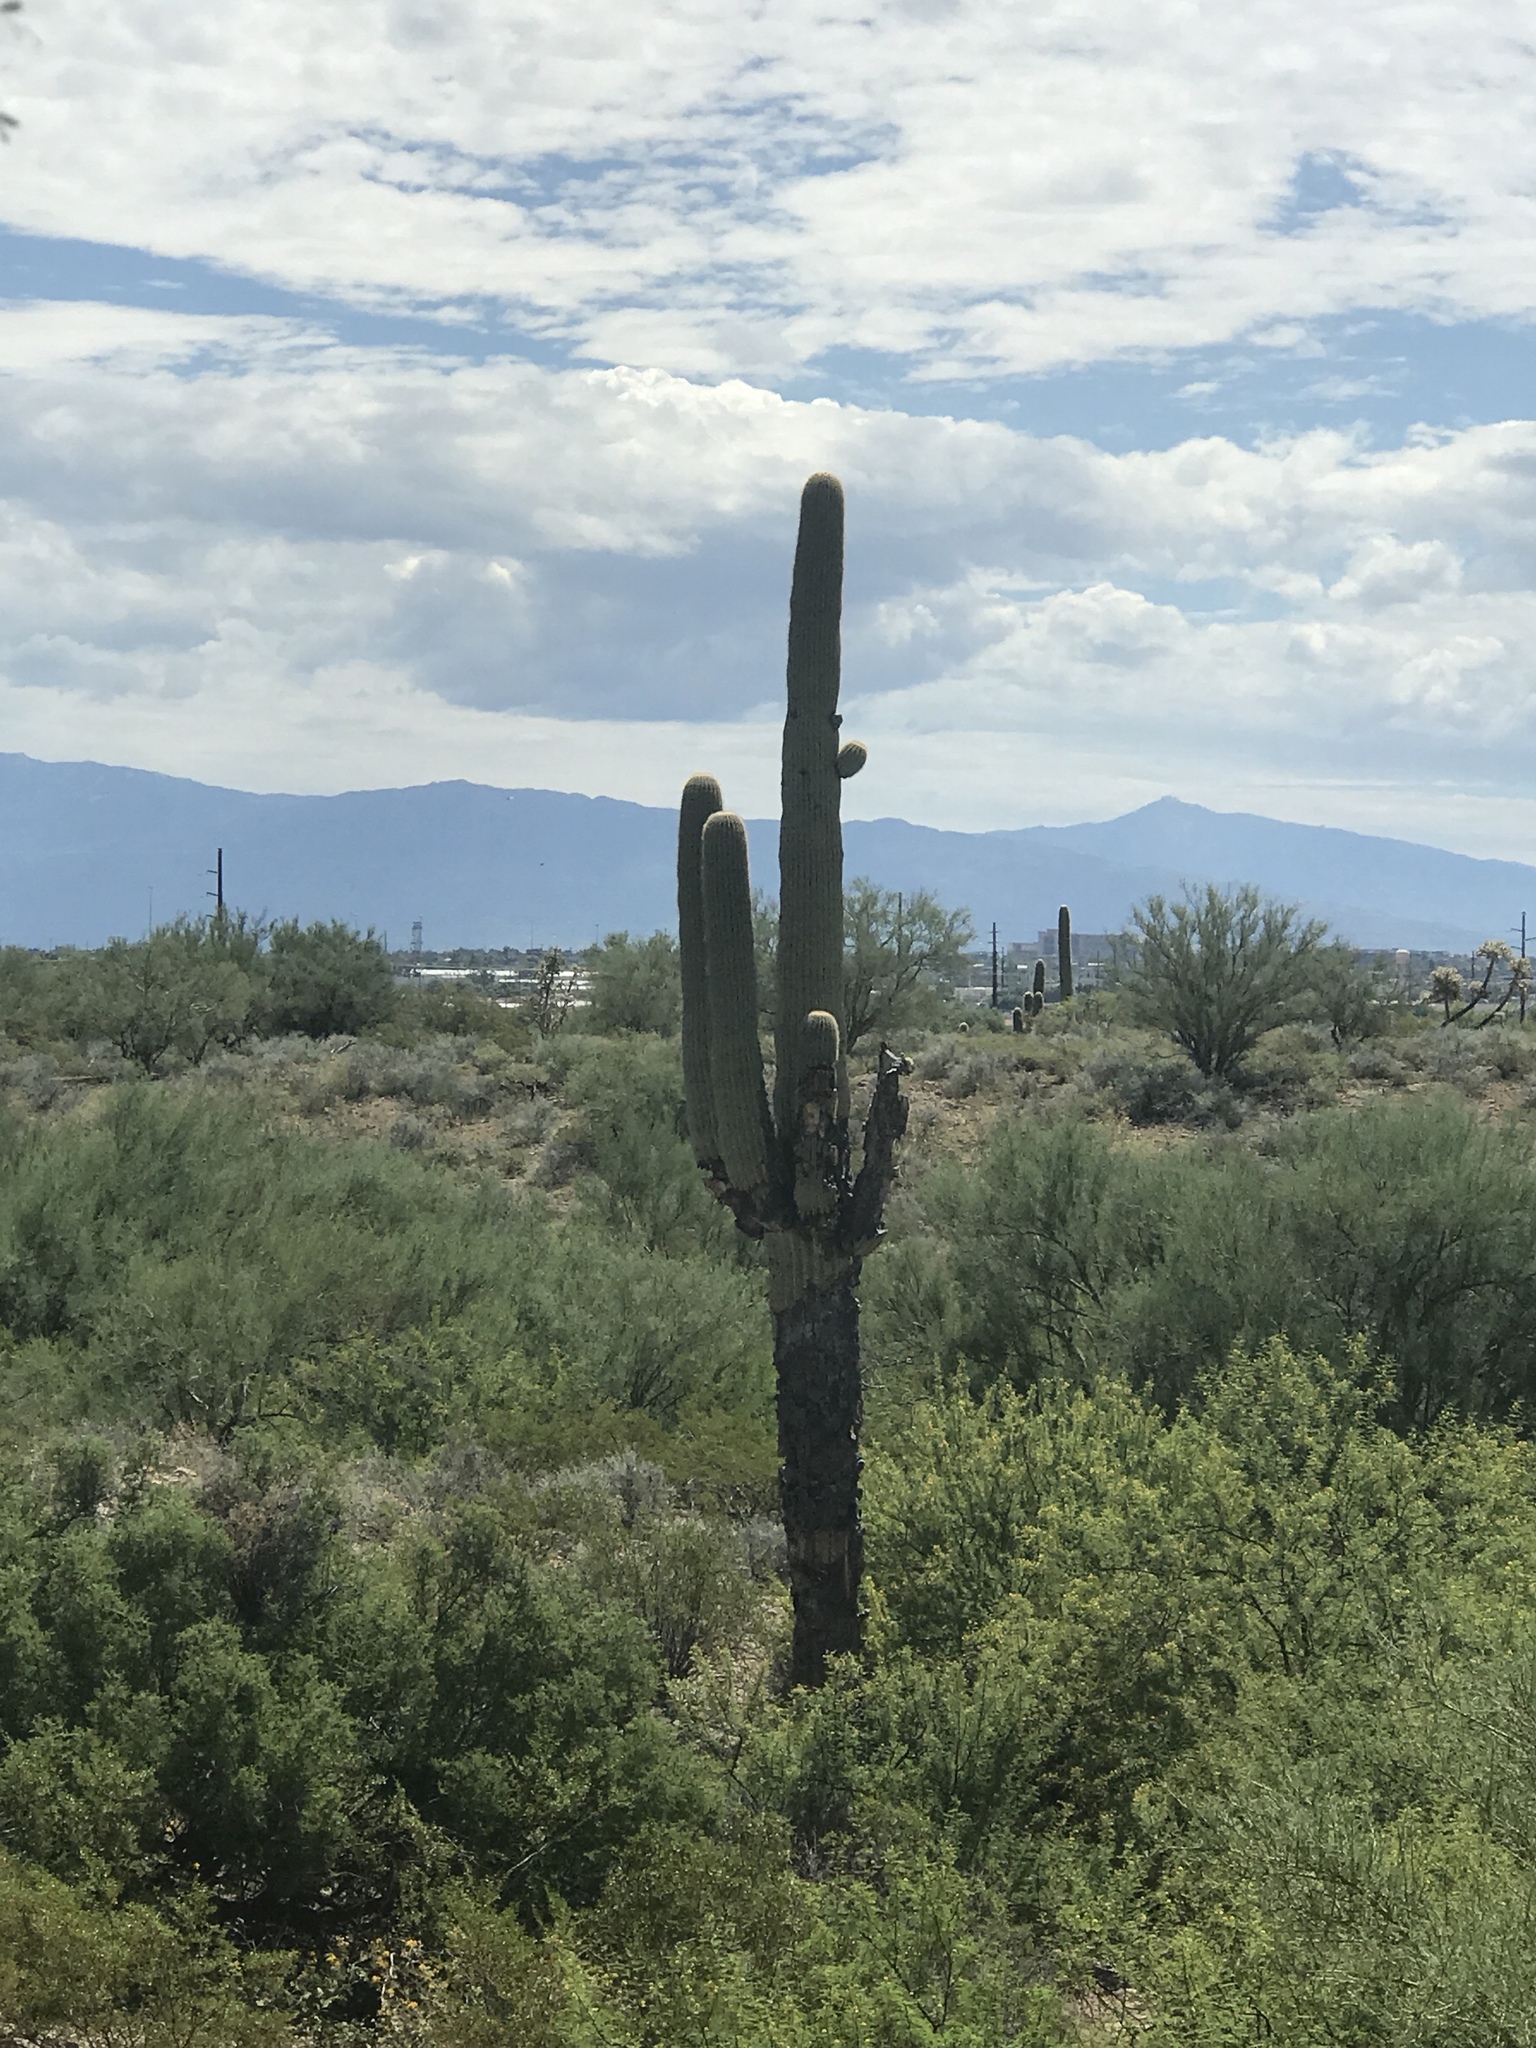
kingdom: Plantae
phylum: Tracheophyta
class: Magnoliopsida
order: Caryophyllales
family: Cactaceae
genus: Carnegiea
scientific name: Carnegiea gigantea
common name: Saguaro
